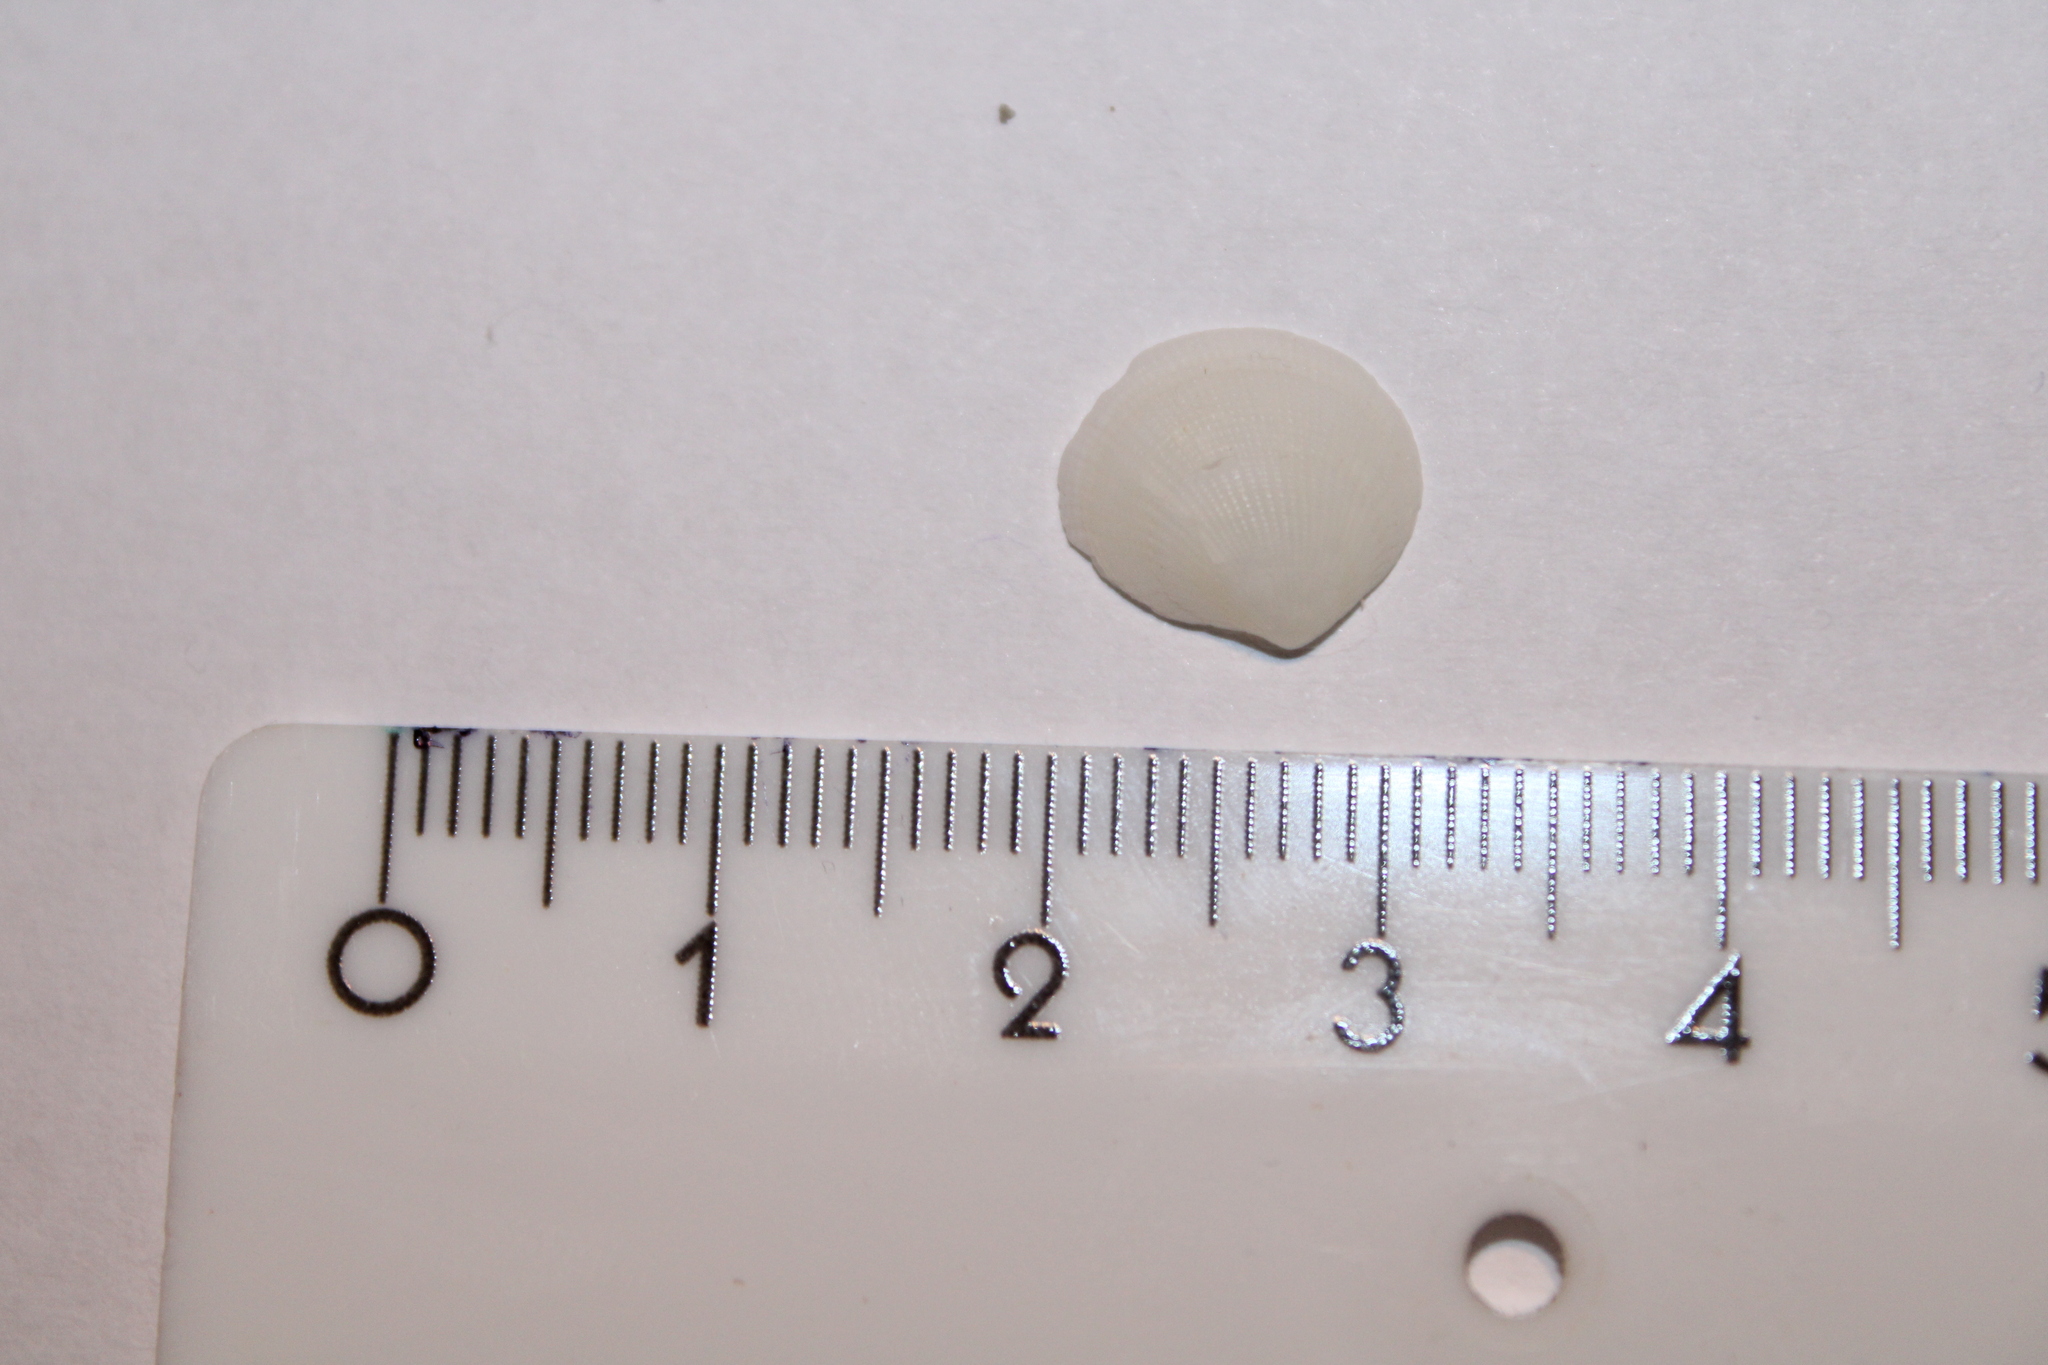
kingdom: Animalia
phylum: Mollusca
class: Bivalvia
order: Lucinida
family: Lucinidae
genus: Ctena
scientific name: Ctena decussata
